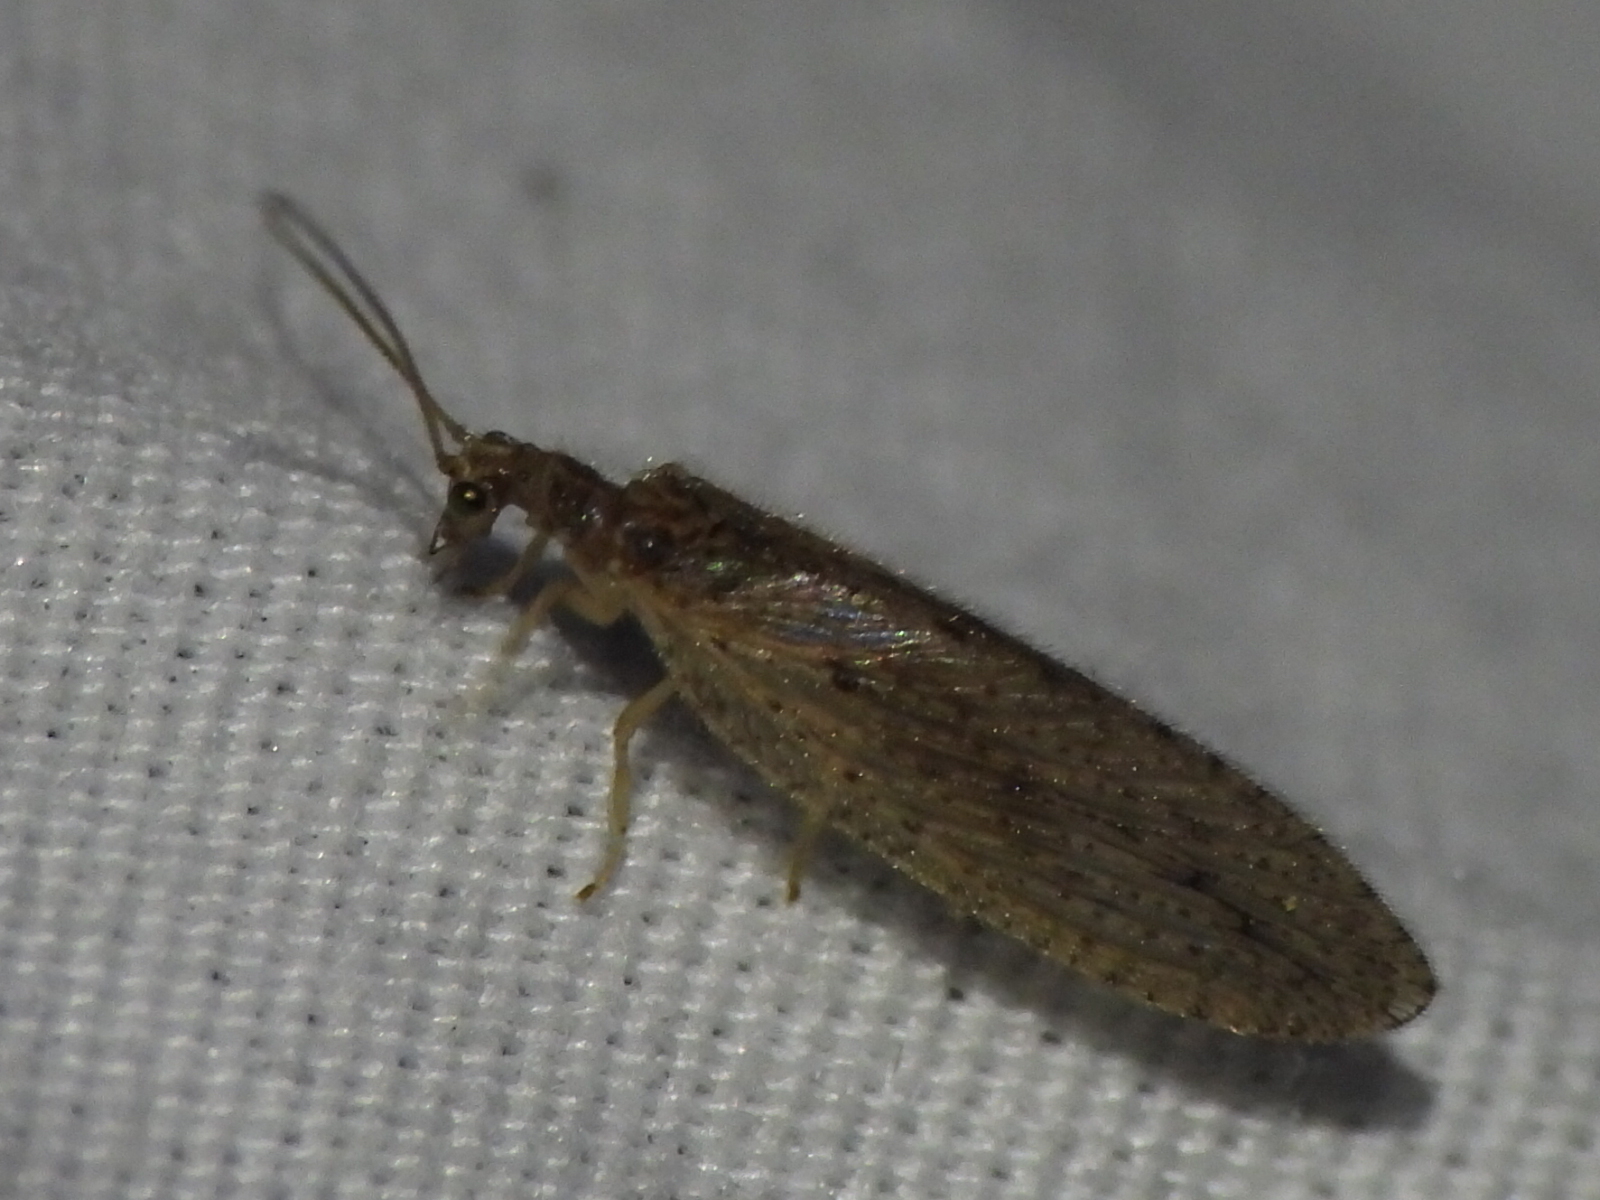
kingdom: Animalia
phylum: Arthropoda
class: Insecta
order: Neuroptera
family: Hemerobiidae
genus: Micromus
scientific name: Micromus subanticus
